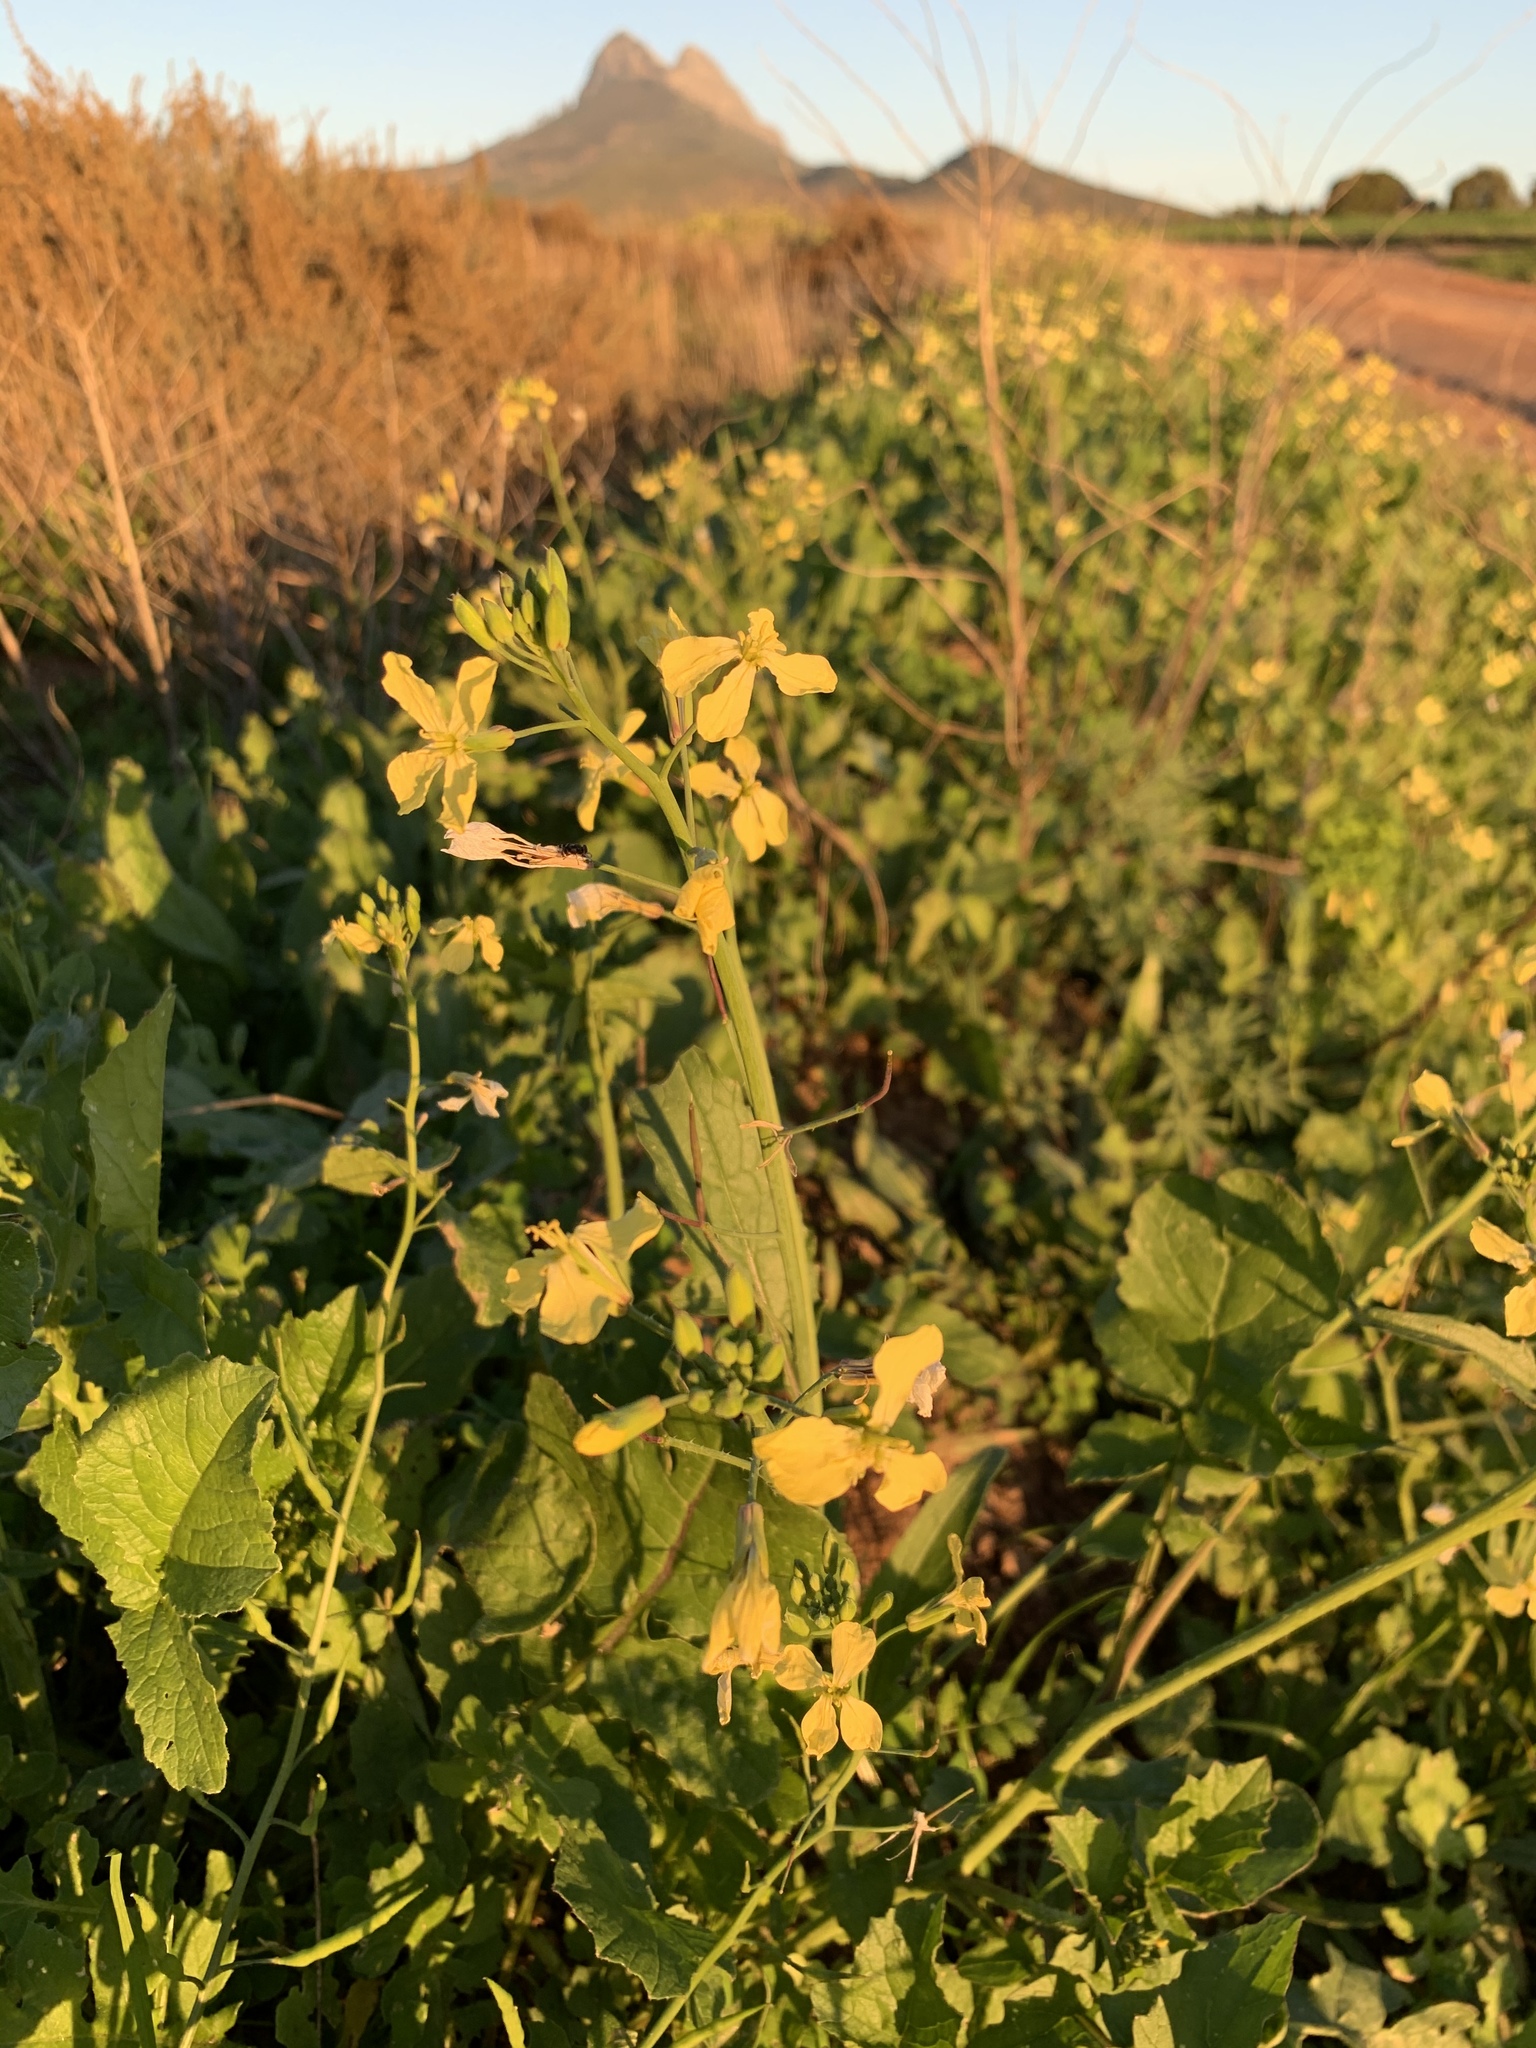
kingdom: Plantae
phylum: Tracheophyta
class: Magnoliopsida
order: Brassicales
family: Brassicaceae
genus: Raphanus
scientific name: Raphanus raphanistrum
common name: Wild radish
